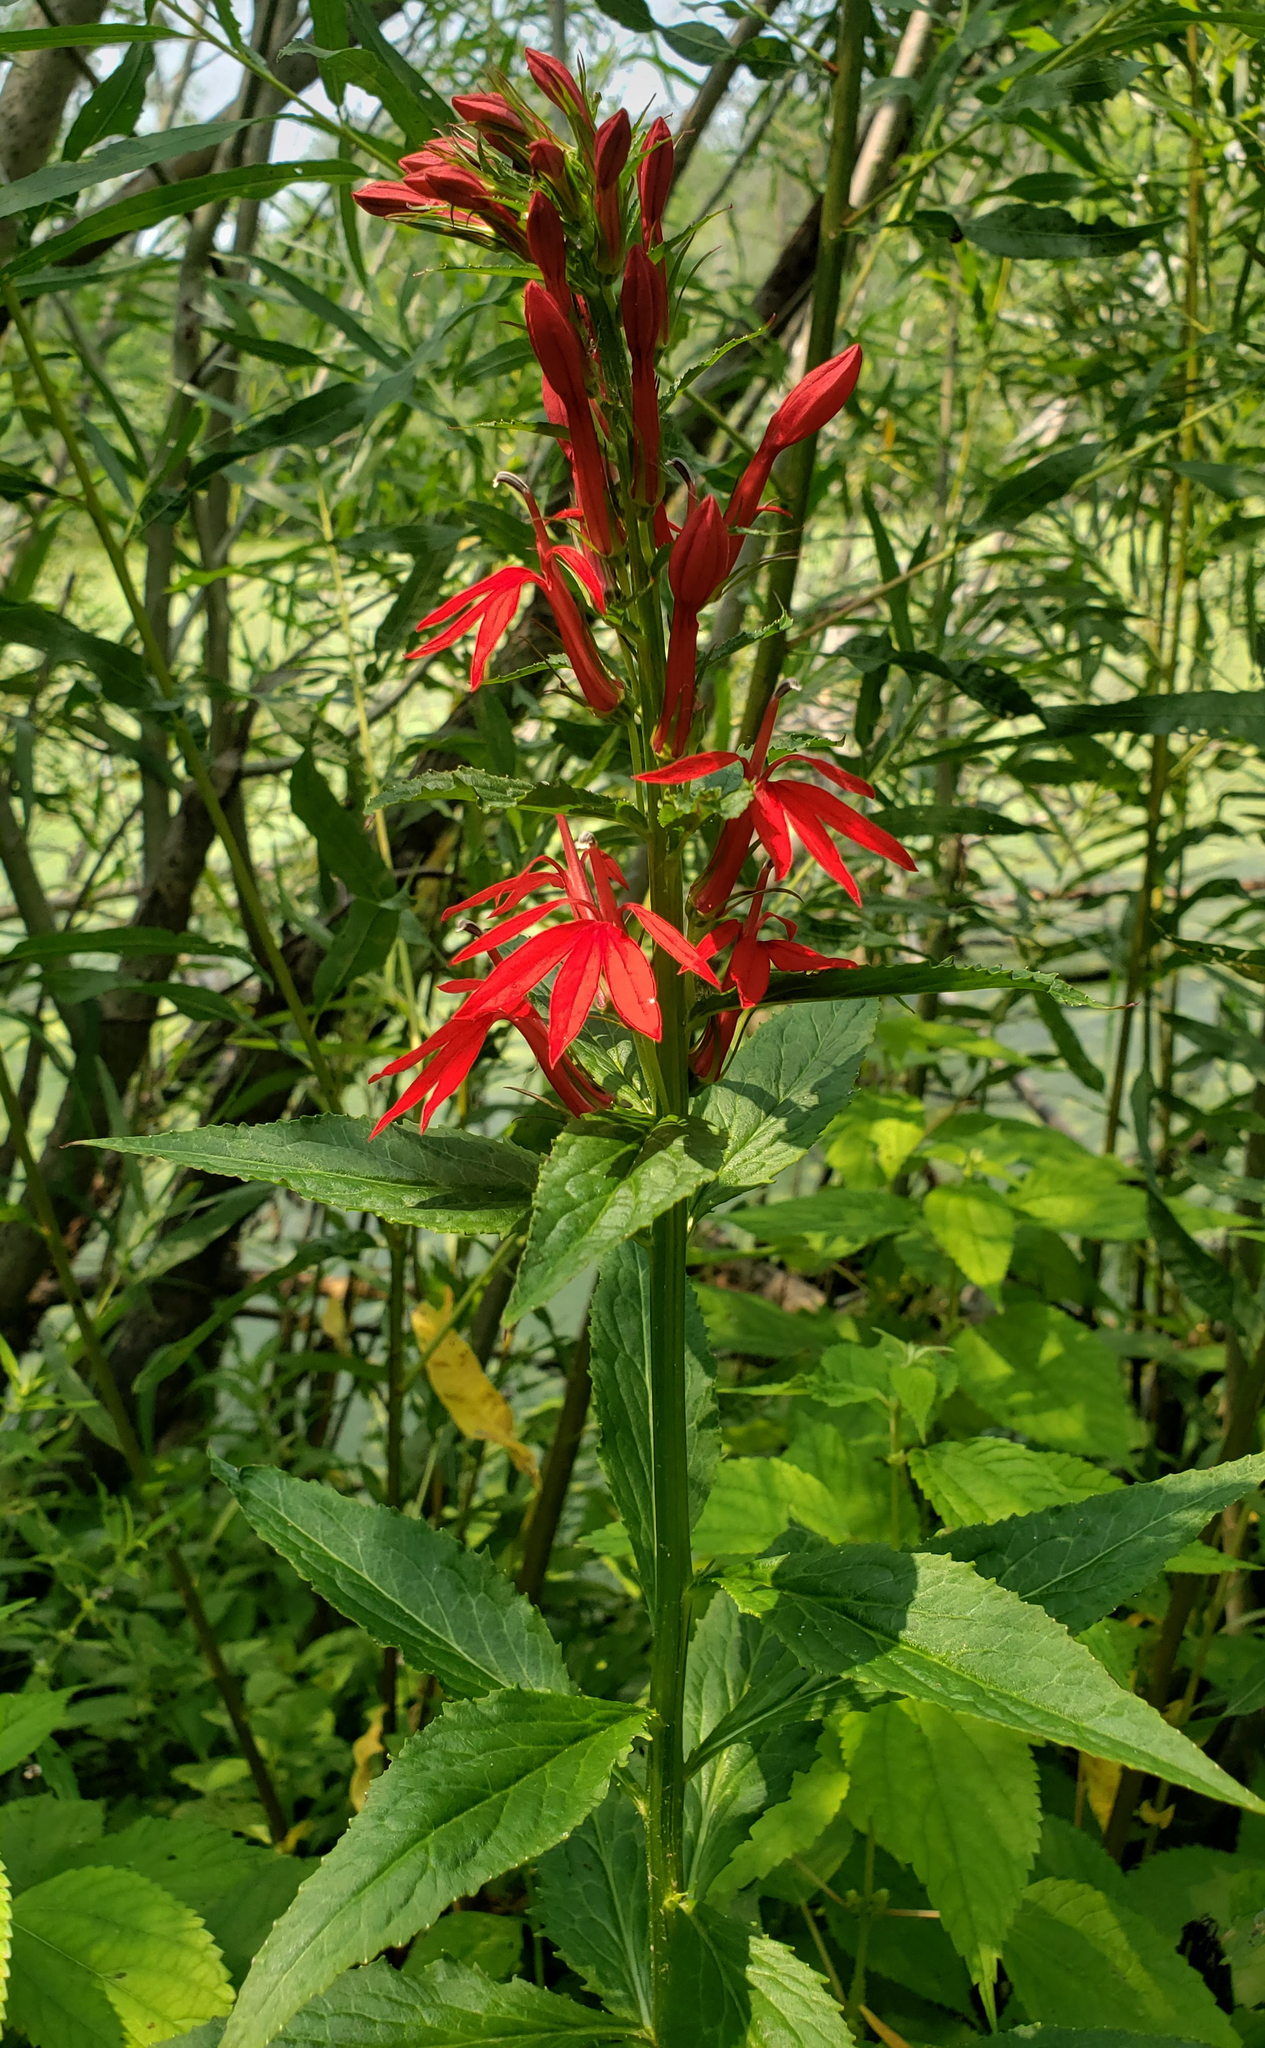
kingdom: Plantae
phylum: Tracheophyta
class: Magnoliopsida
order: Asterales
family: Campanulaceae
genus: Lobelia
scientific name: Lobelia cardinalis
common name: Cardinal flower
